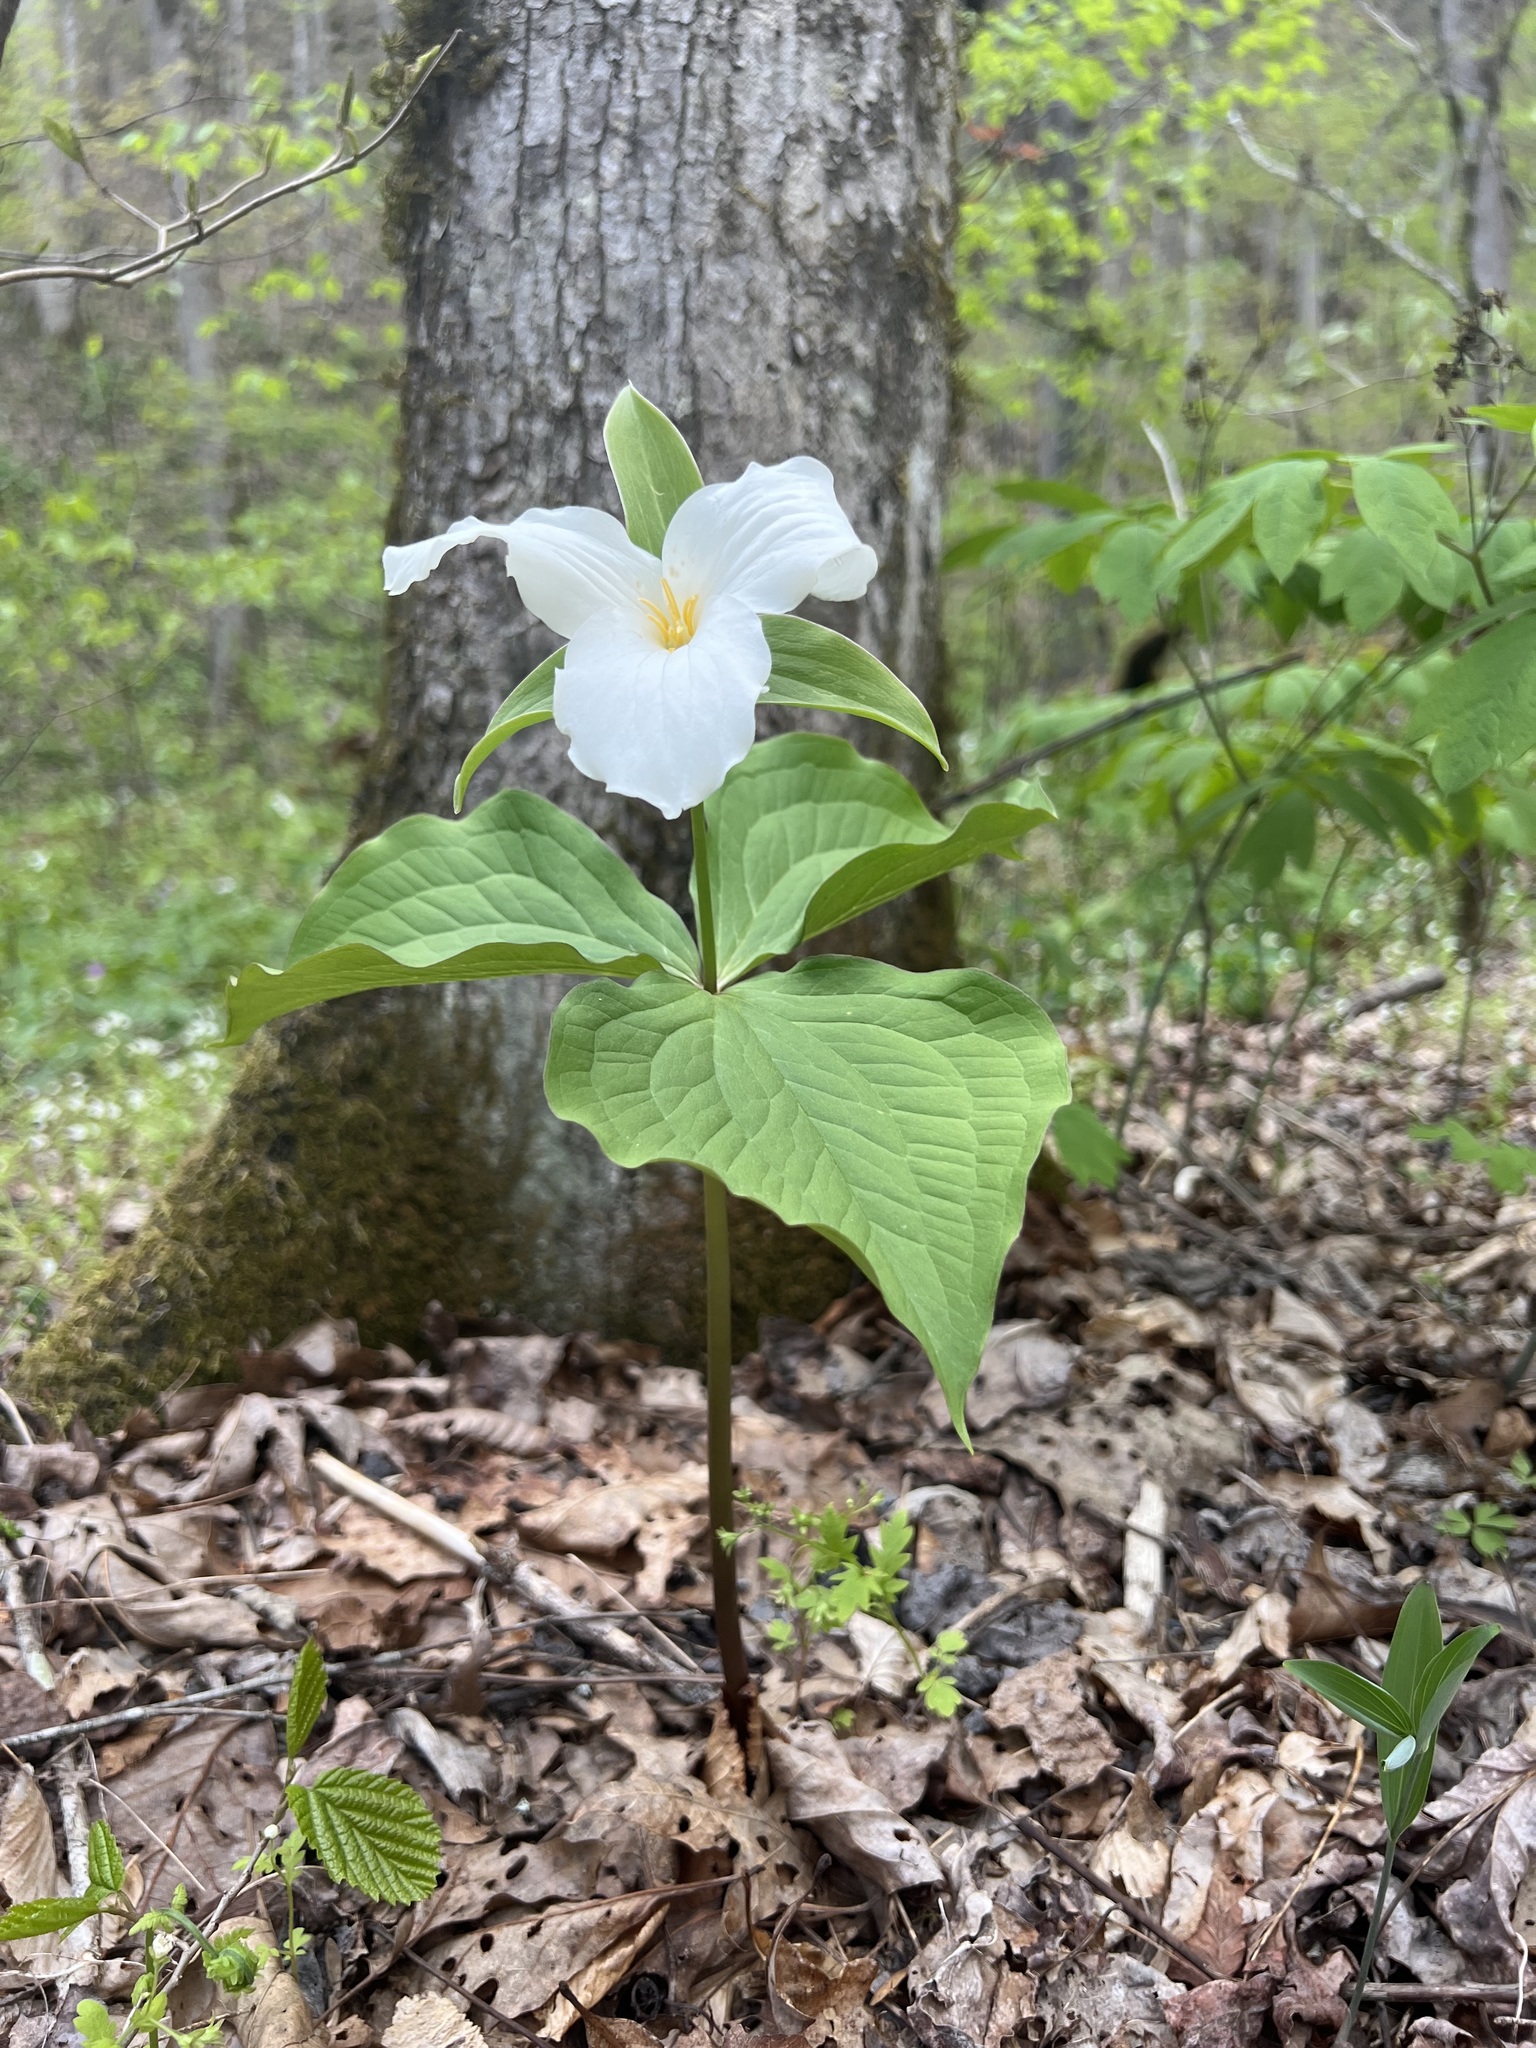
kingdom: Plantae
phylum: Tracheophyta
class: Liliopsida
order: Liliales
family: Melanthiaceae
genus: Trillium
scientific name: Trillium grandiflorum
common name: Great white trillium
